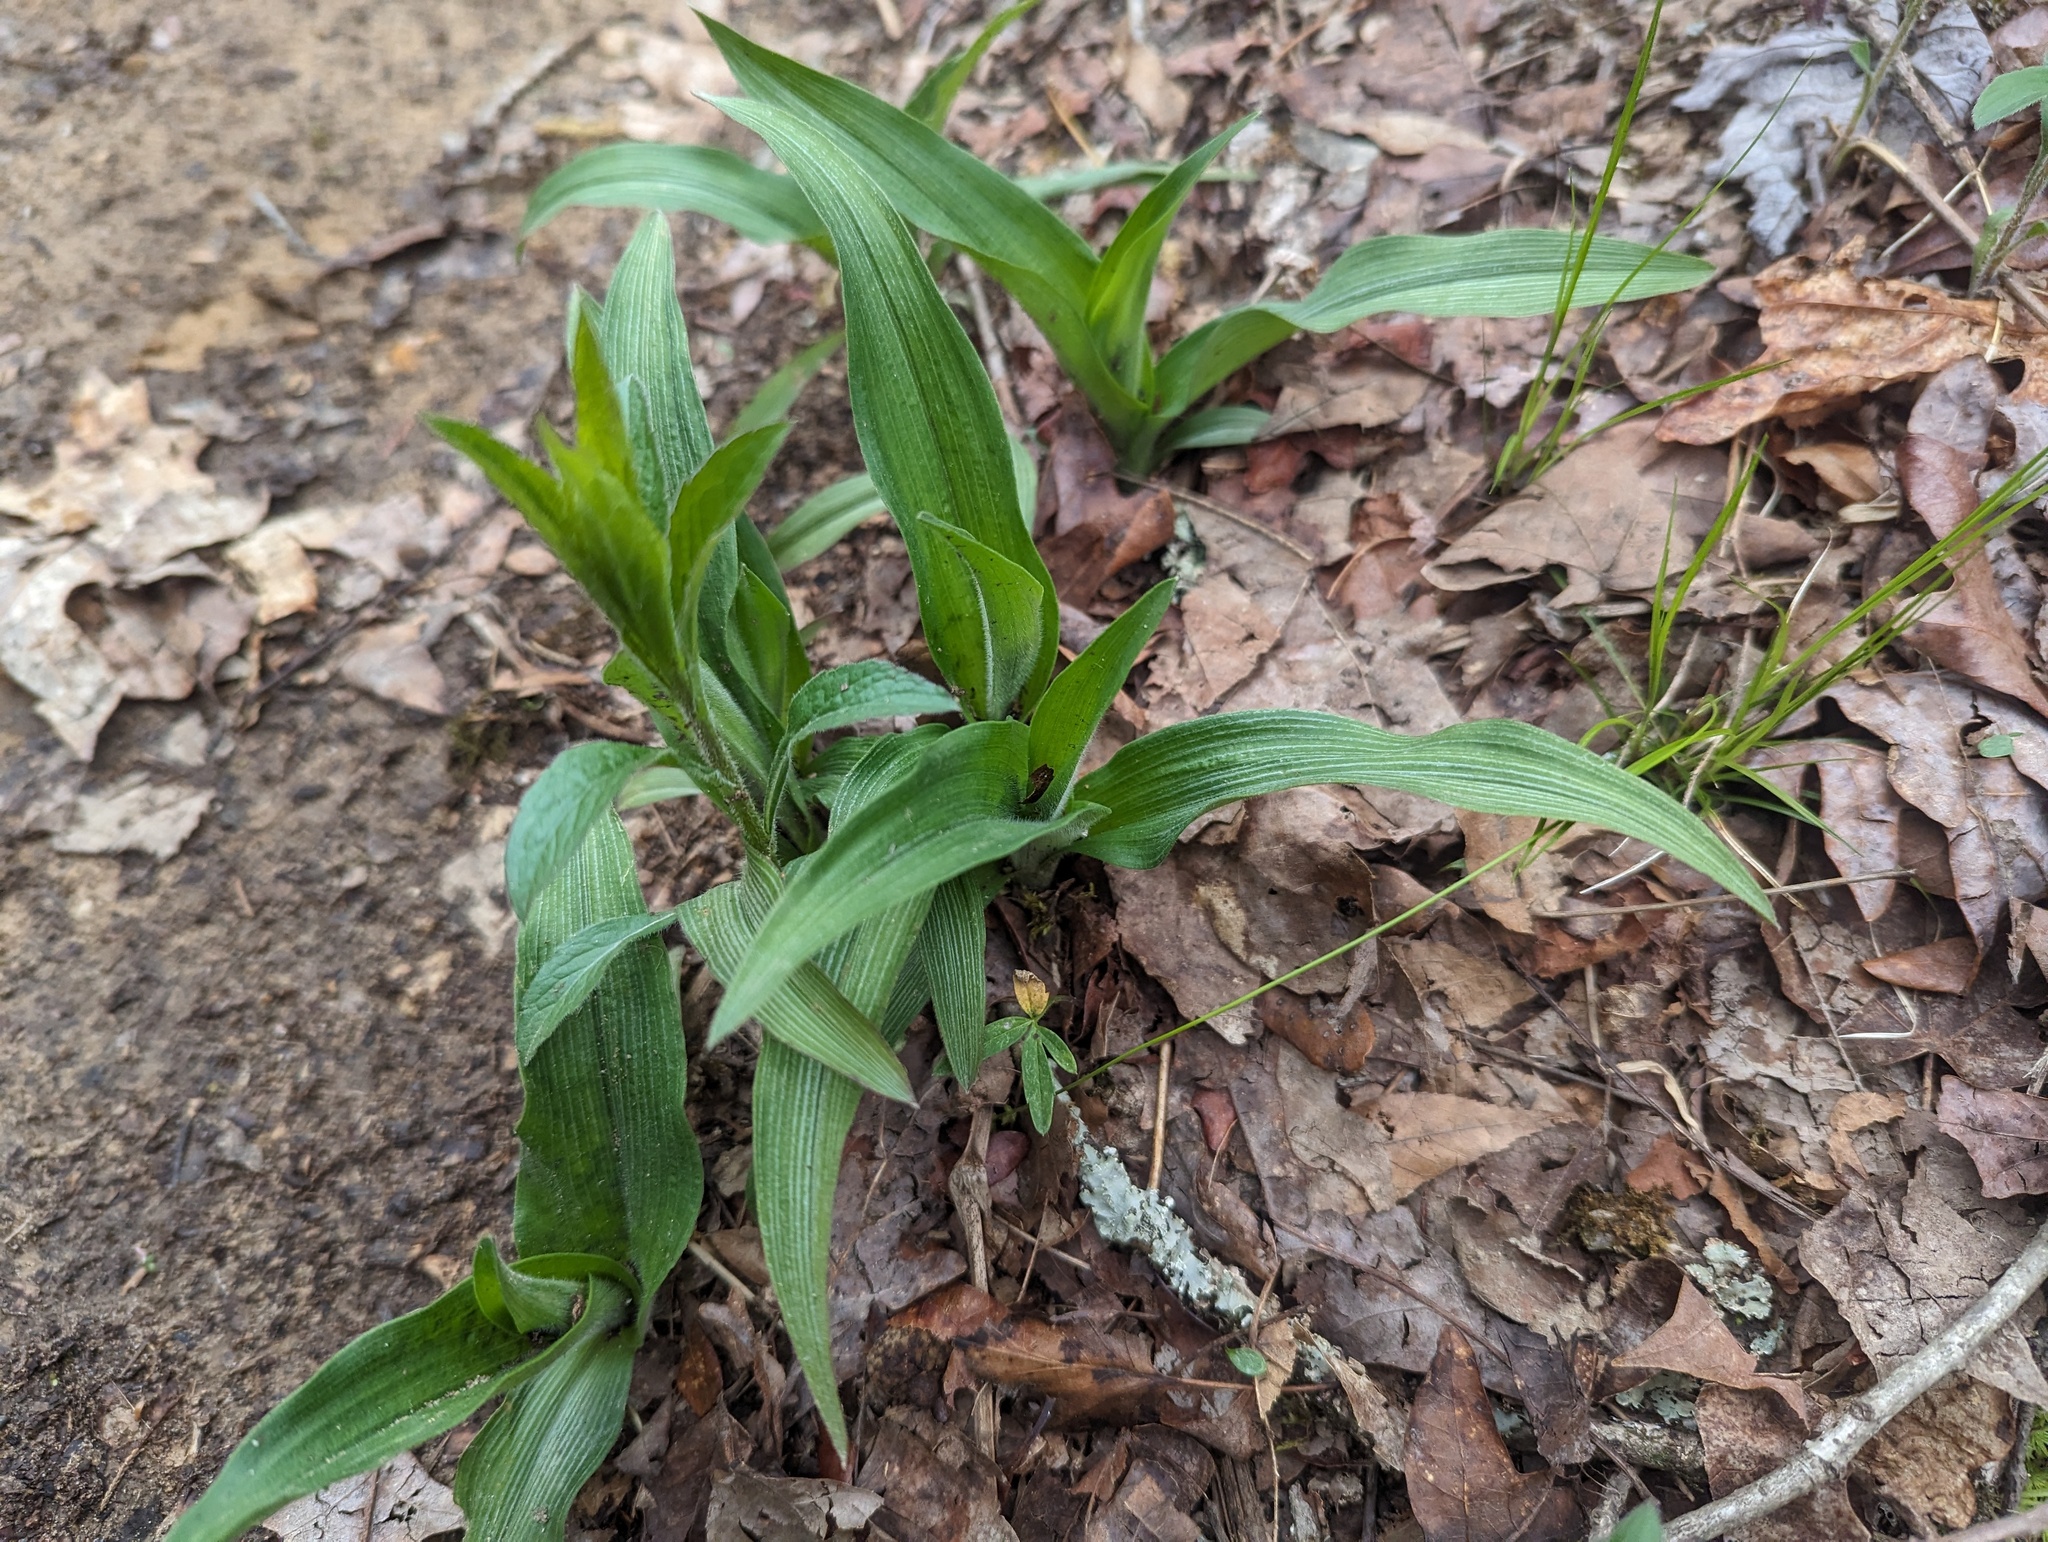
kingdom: Plantae
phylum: Tracheophyta
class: Liliopsida
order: Commelinales
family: Commelinaceae
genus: Tradescantia
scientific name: Tradescantia subaspera
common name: Wide-leaf spiderwort
